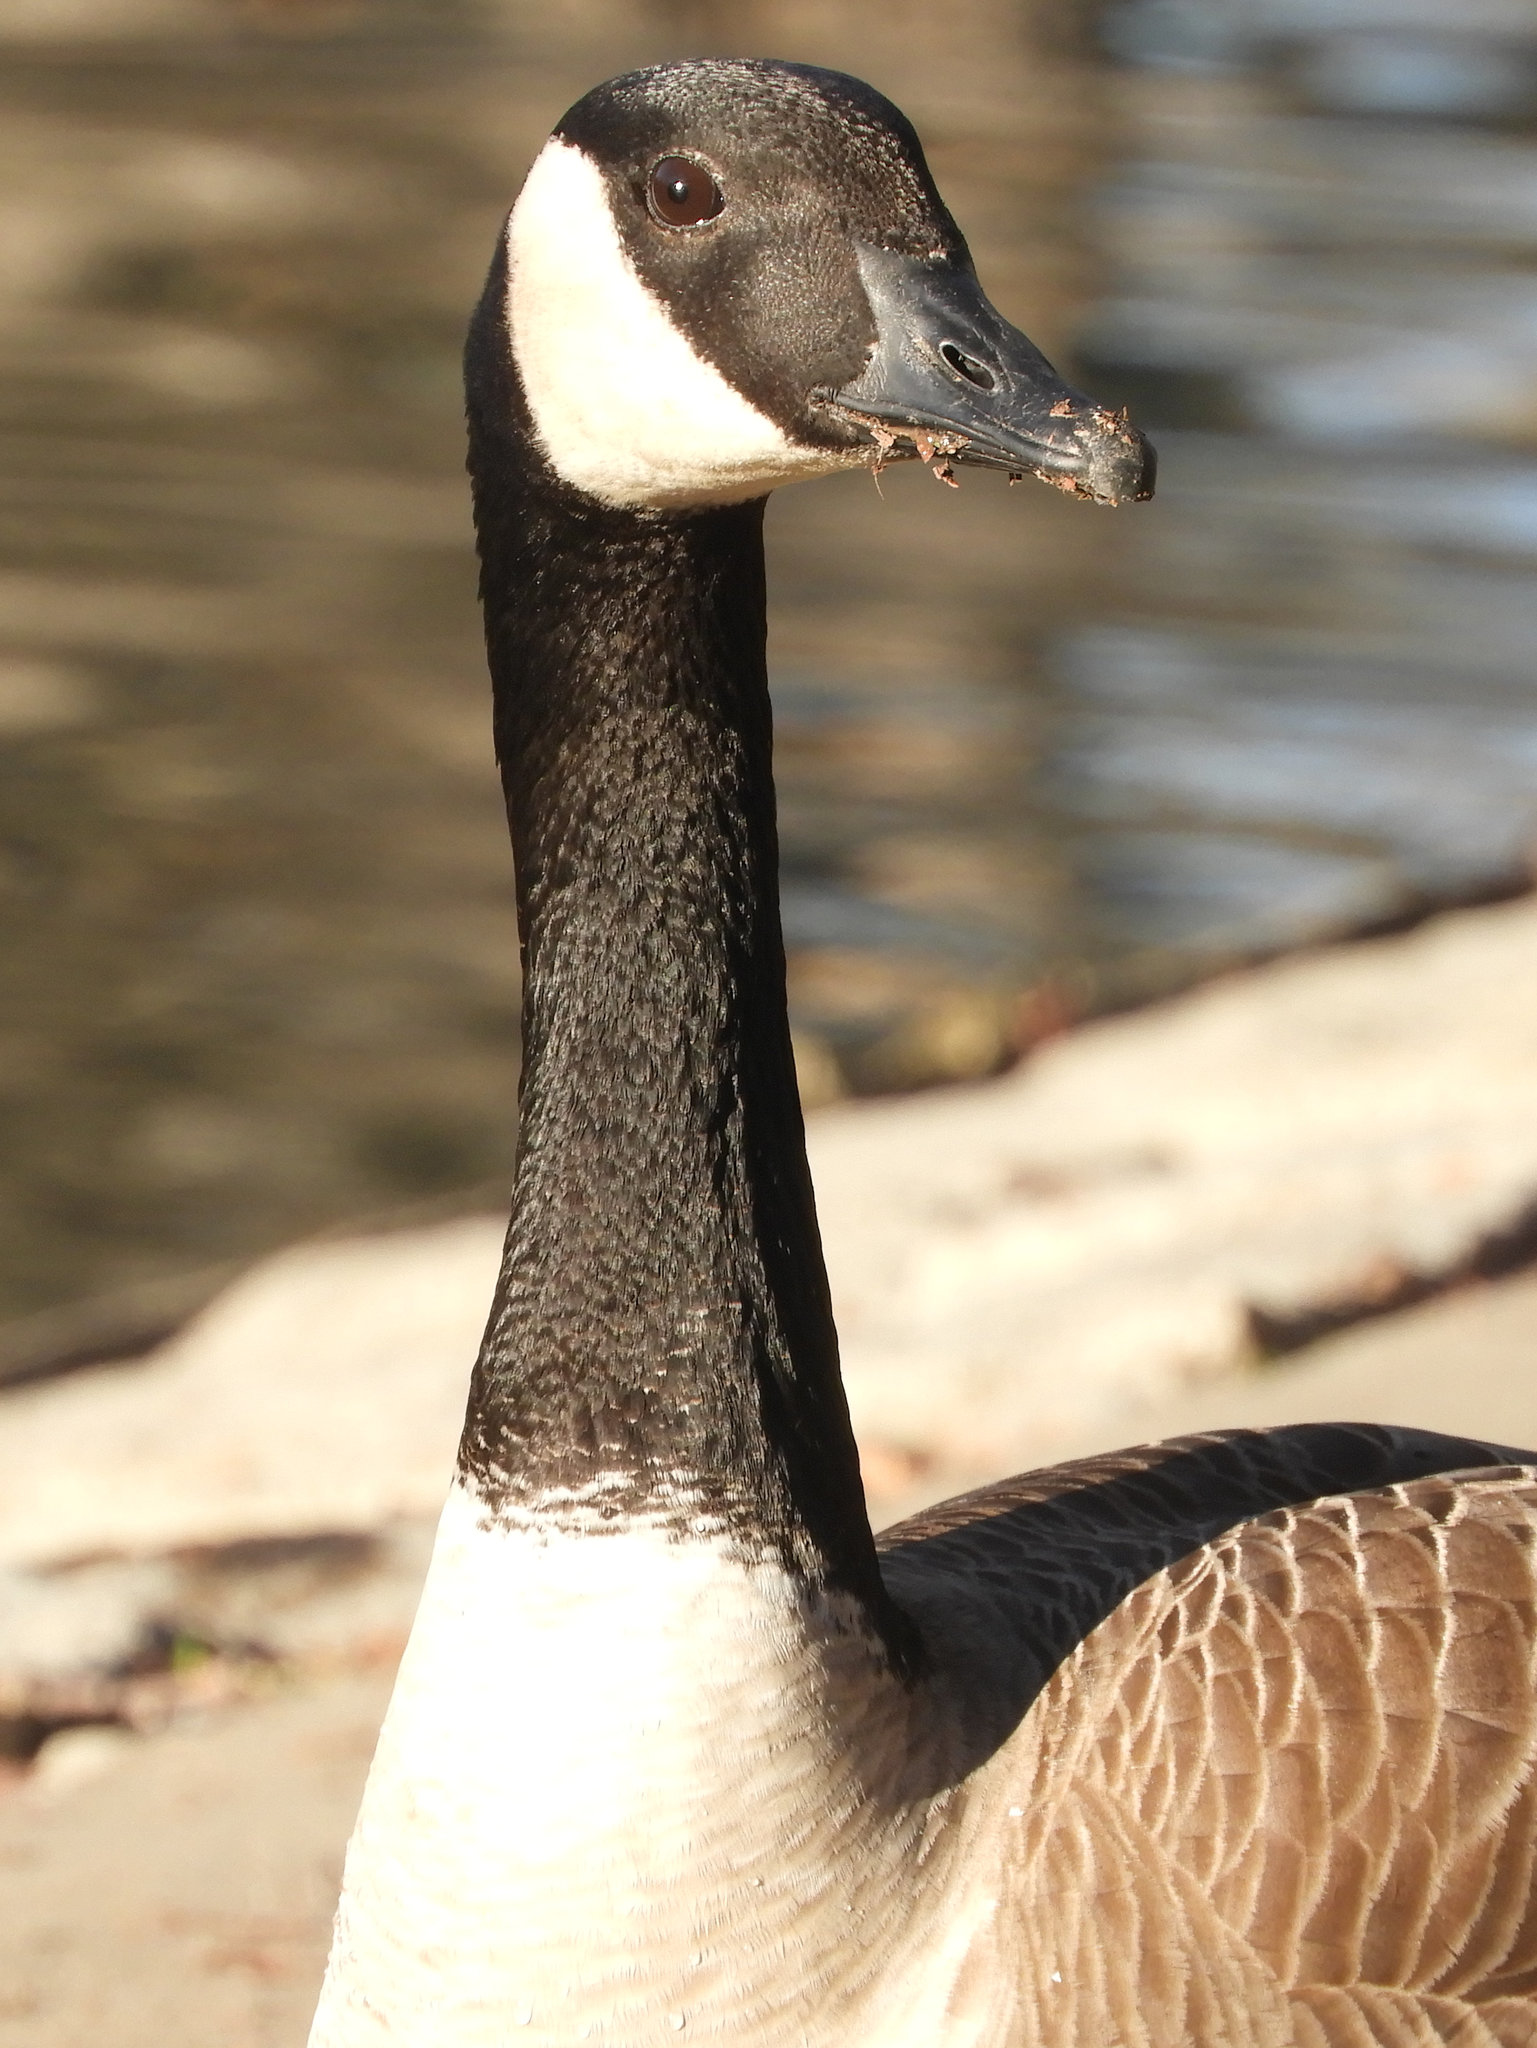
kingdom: Animalia
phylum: Chordata
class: Aves
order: Anseriformes
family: Anatidae
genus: Branta
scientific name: Branta canadensis
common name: Canada goose
